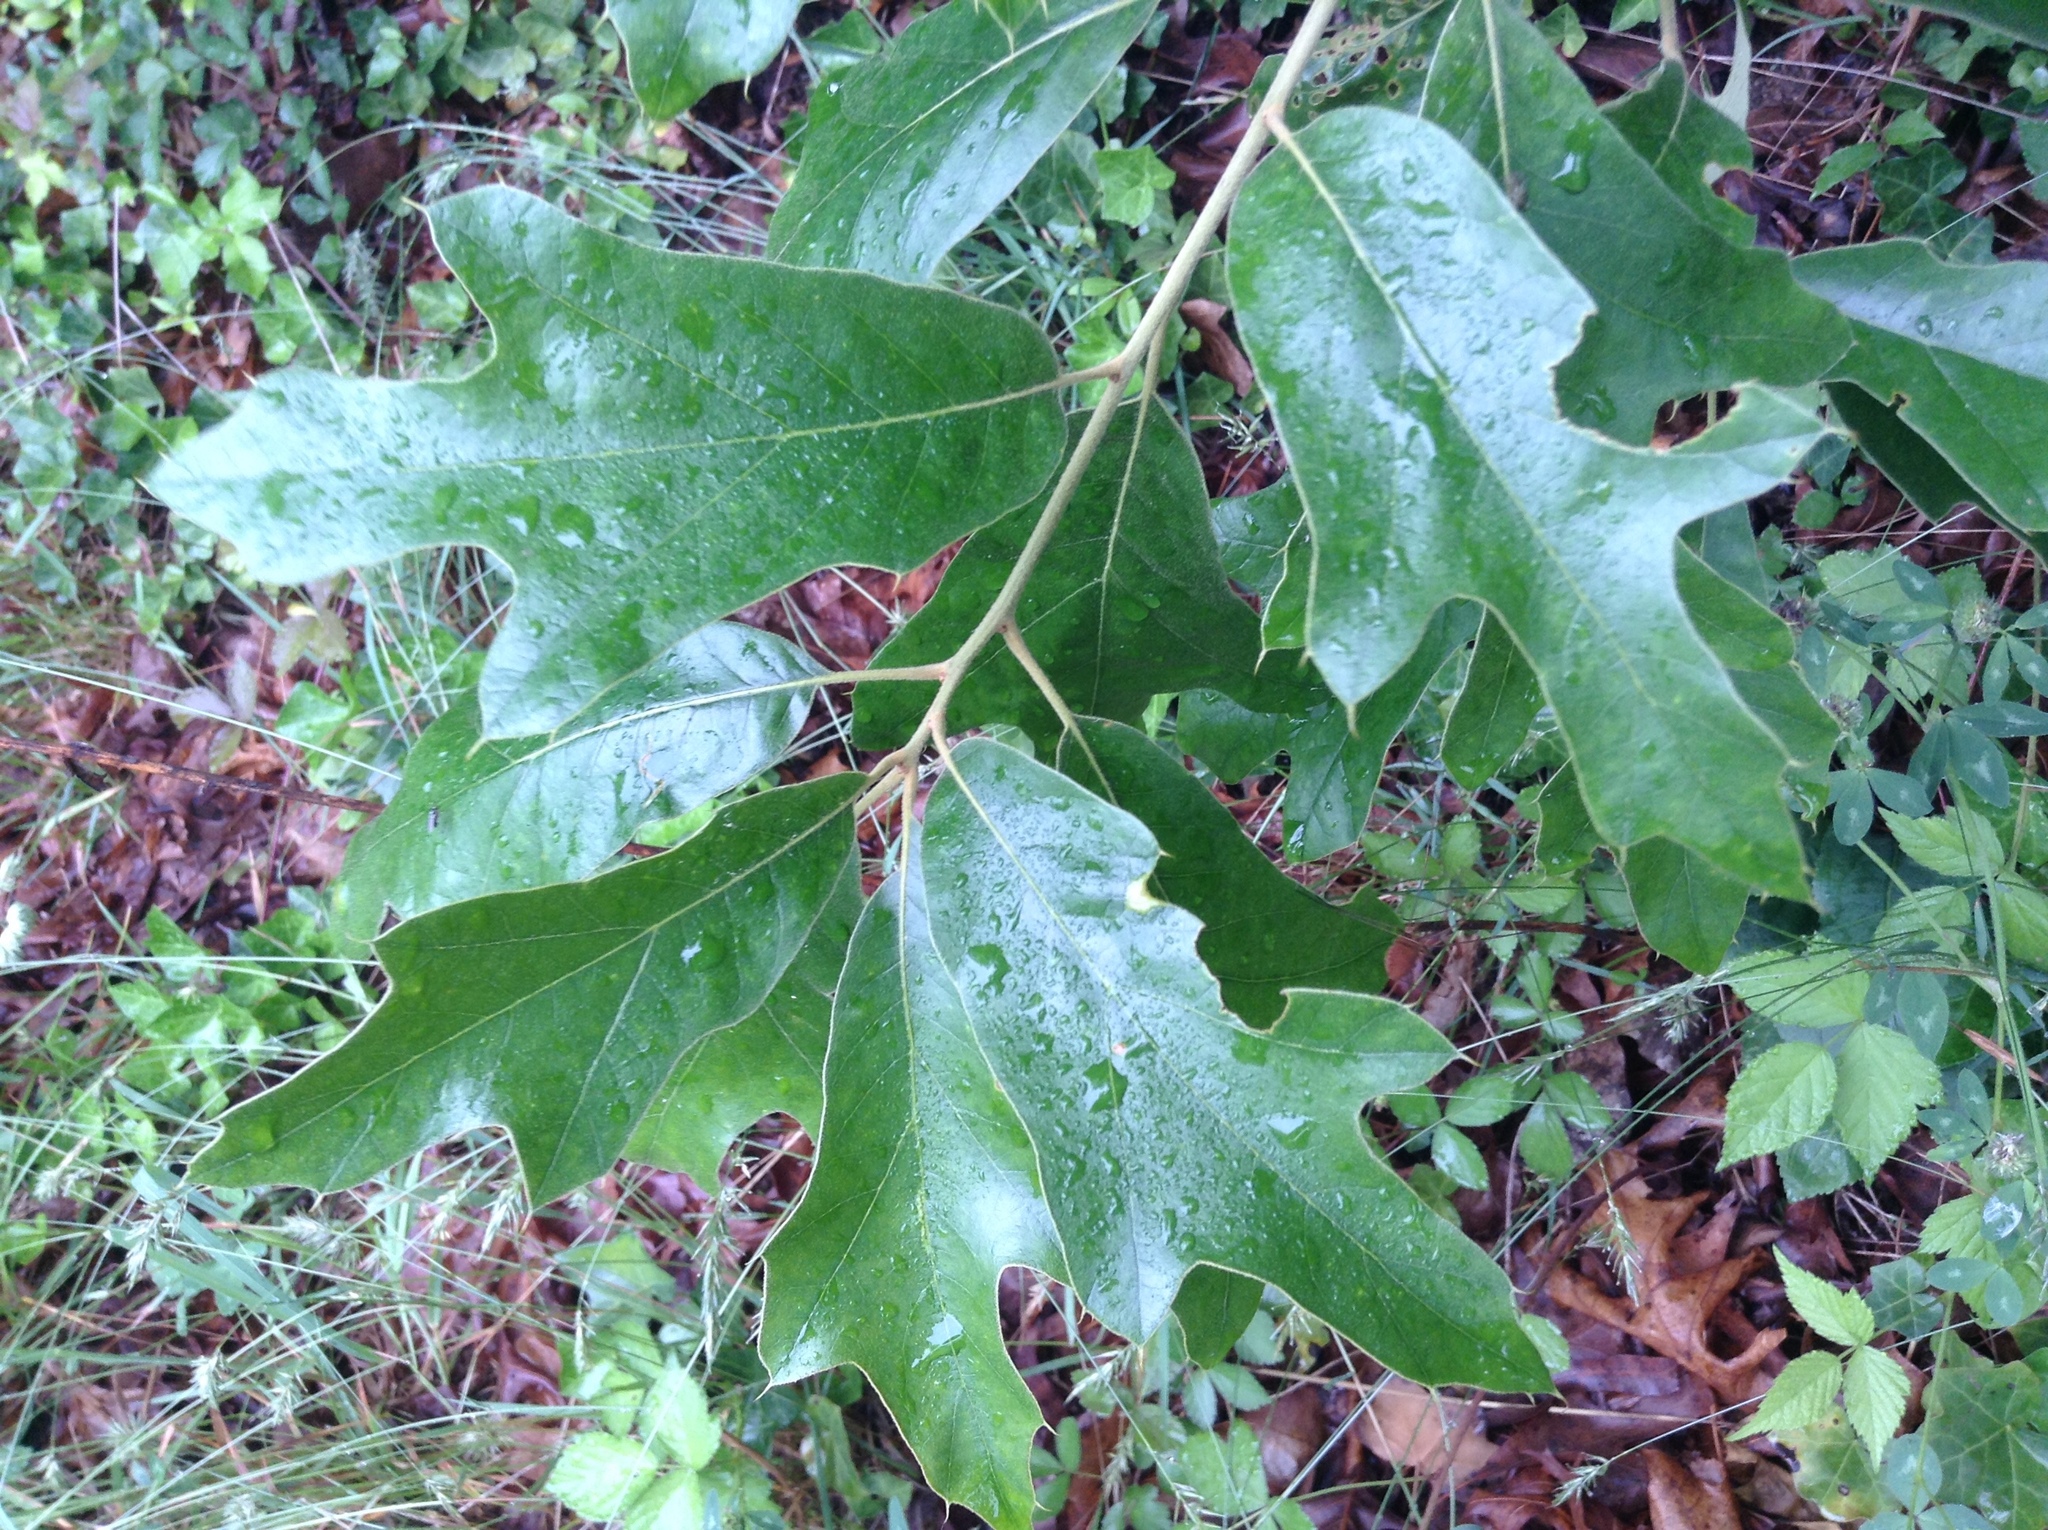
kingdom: Plantae
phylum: Tracheophyta
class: Magnoliopsida
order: Fagales
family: Fagaceae
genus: Quercus
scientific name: Quercus falcata
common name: Southern red oak
